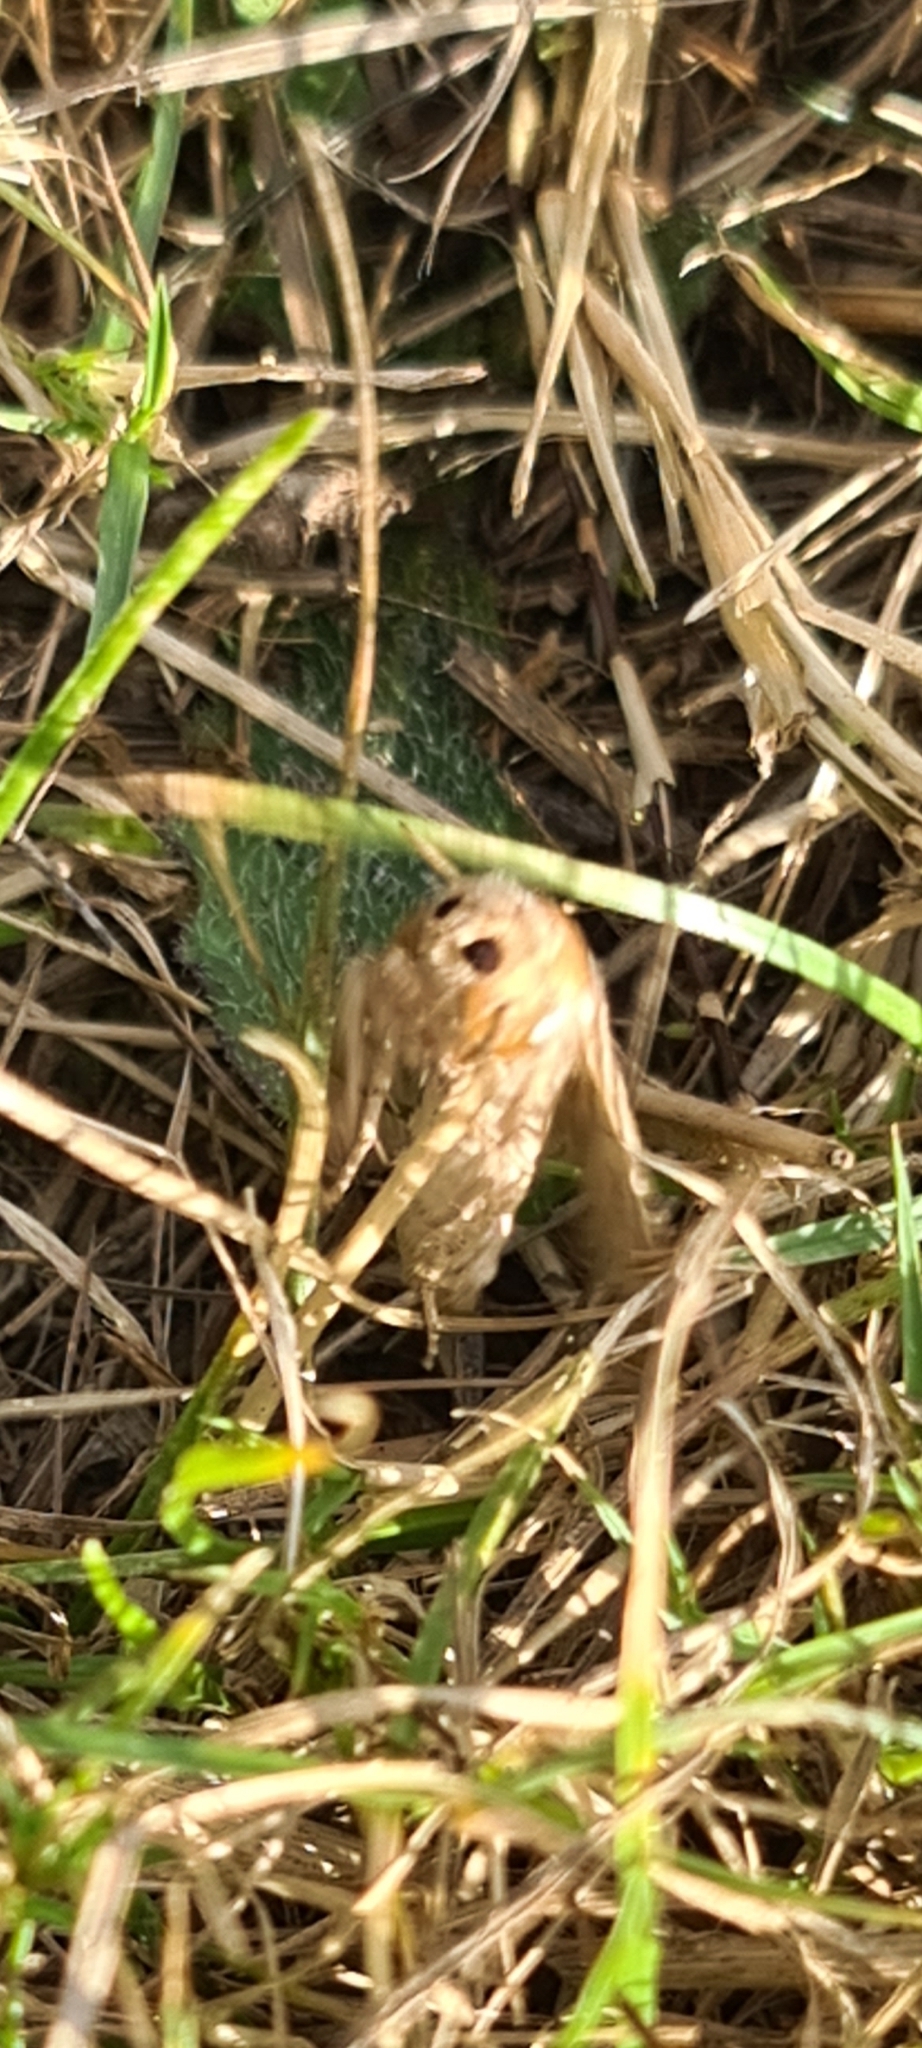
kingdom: Animalia
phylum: Arthropoda
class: Insecta
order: Lepidoptera
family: Noctuidae
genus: Luperina
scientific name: Luperina testacea
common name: Flounced rustic
